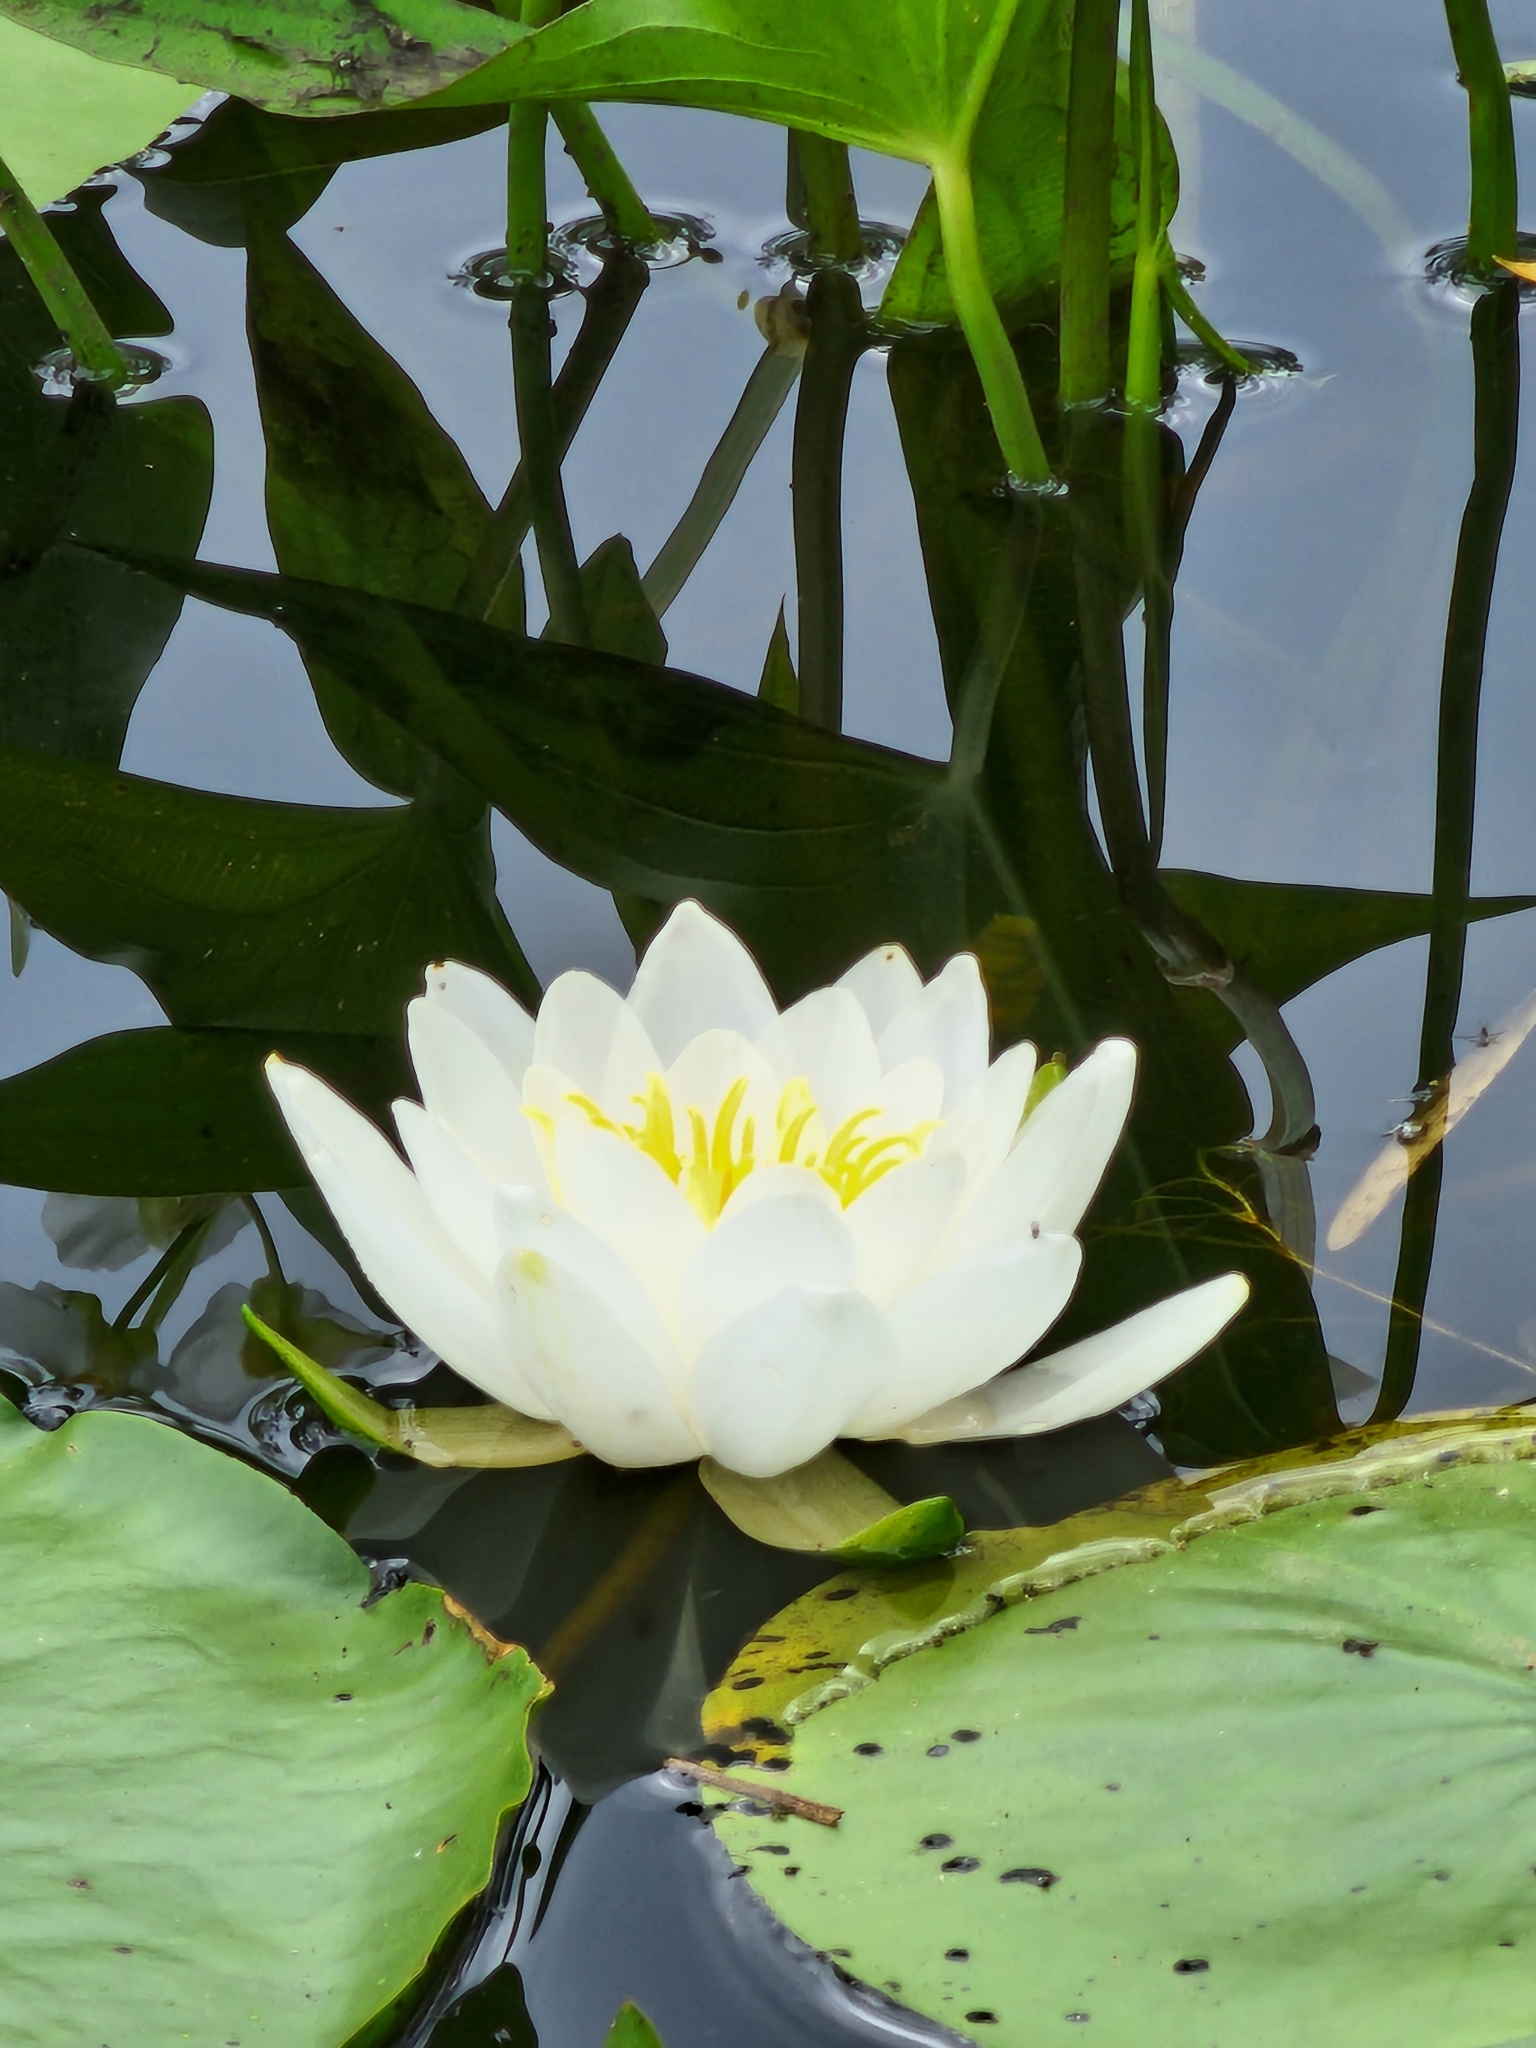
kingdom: Plantae
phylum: Tracheophyta
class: Magnoliopsida
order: Nymphaeales
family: Nymphaeaceae
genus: Nymphaea
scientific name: Nymphaea odorata
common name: Fragrant water-lily
